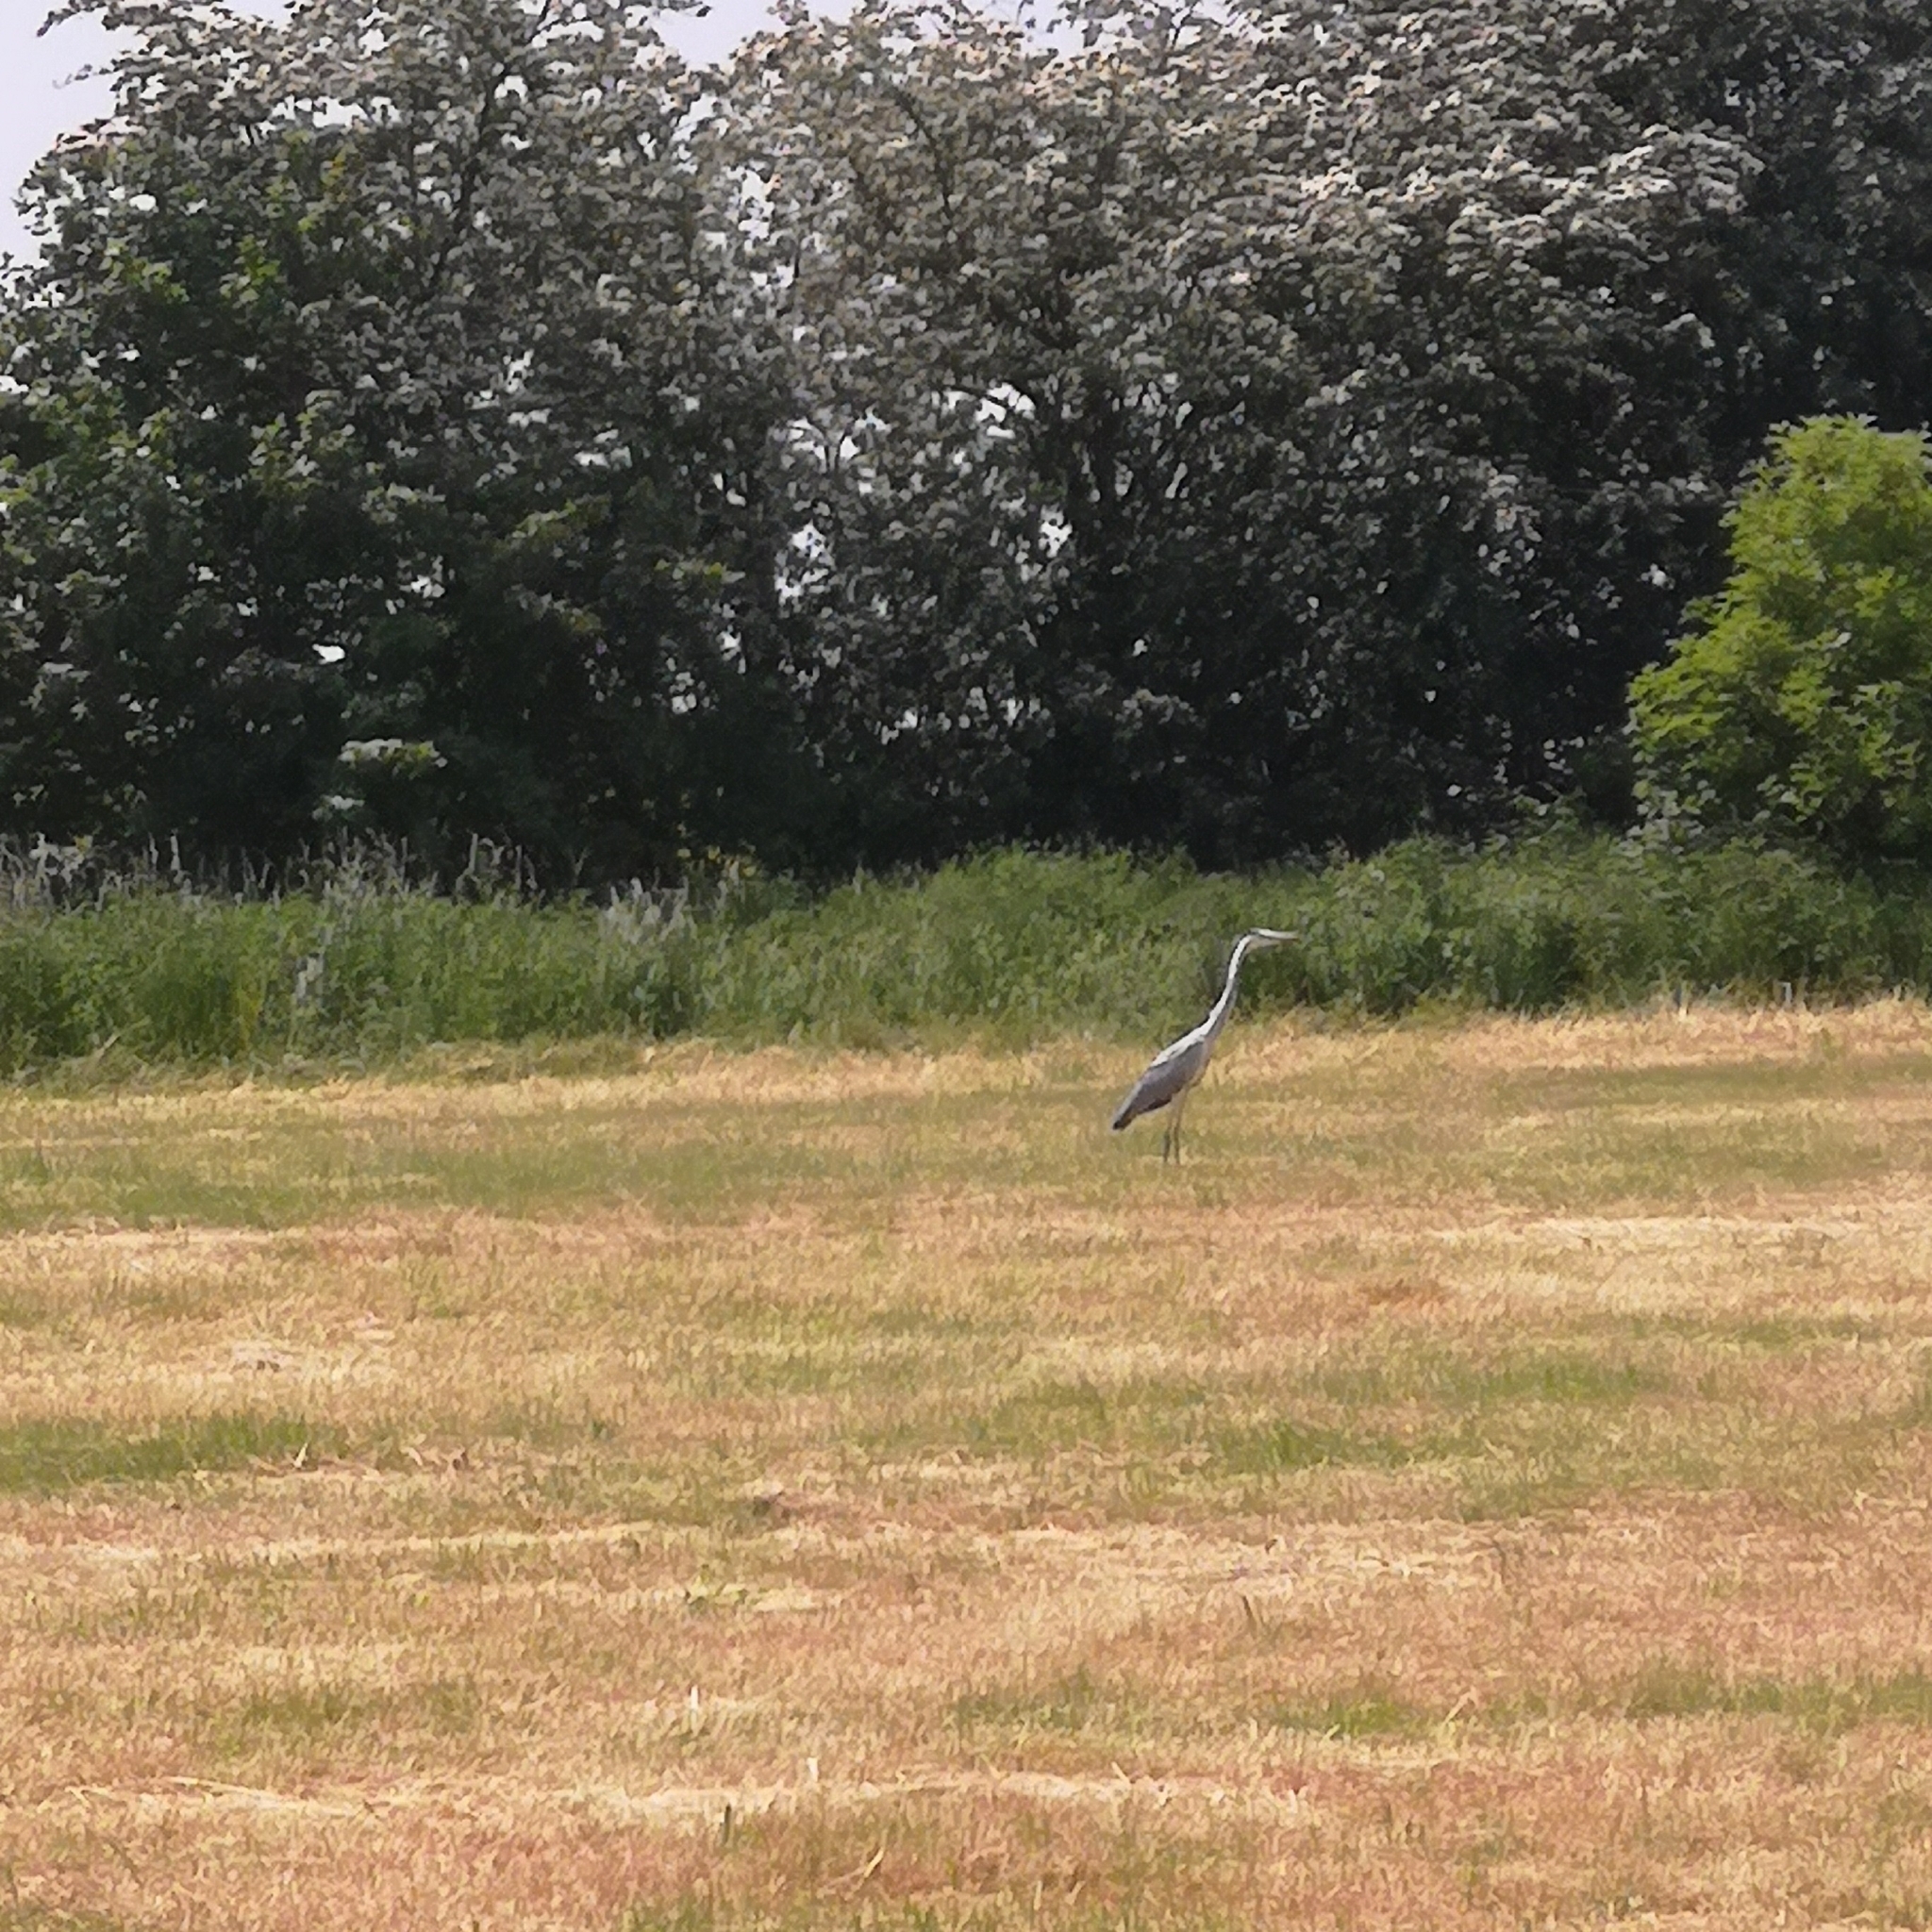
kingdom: Animalia
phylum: Chordata
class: Aves
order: Pelecaniformes
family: Ardeidae
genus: Ardea
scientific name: Ardea cinerea
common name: Grey heron
